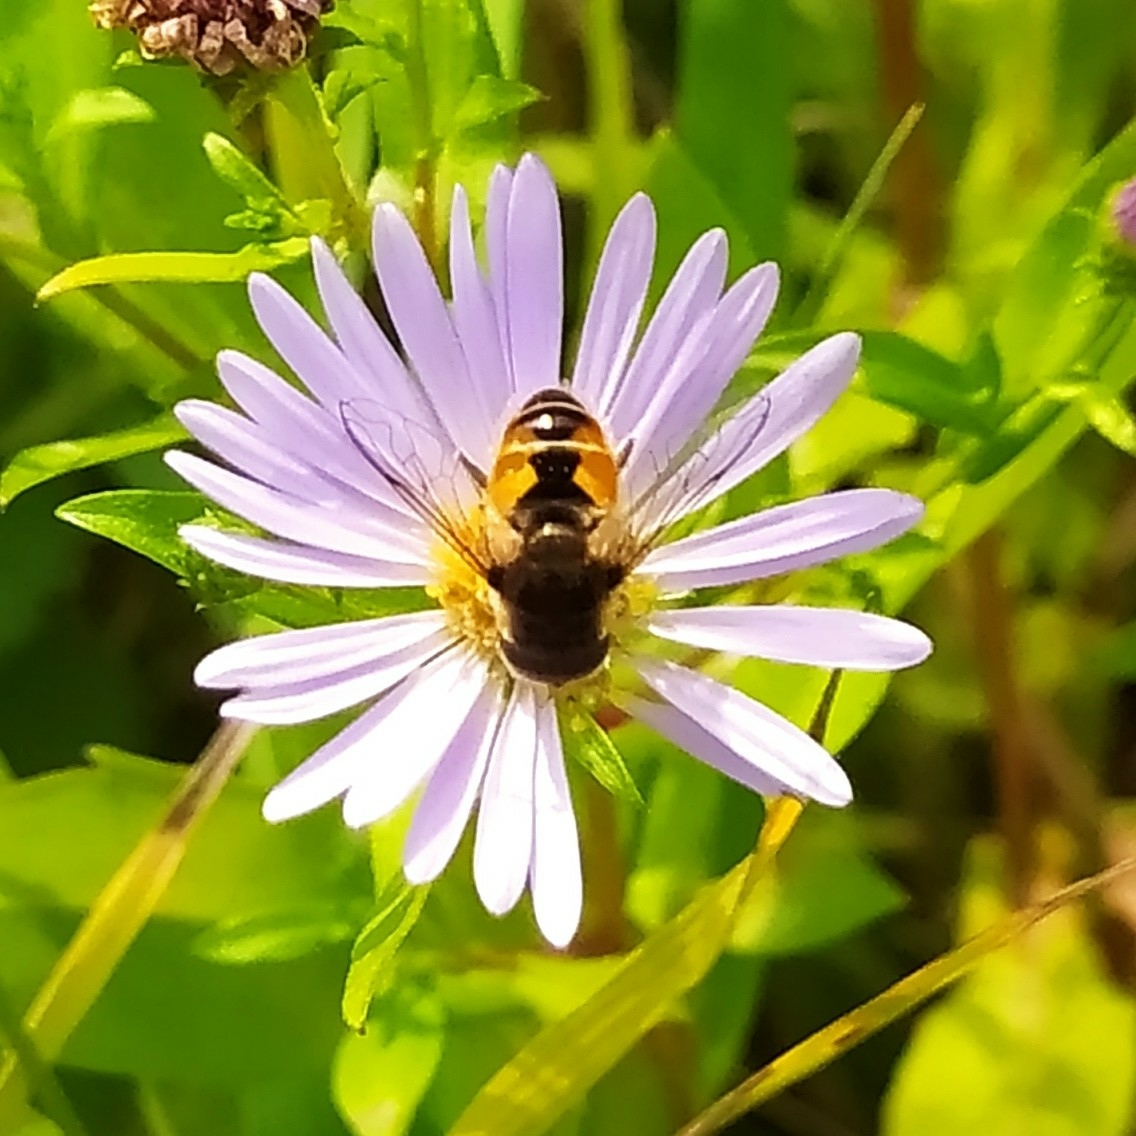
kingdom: Animalia
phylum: Arthropoda
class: Insecta
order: Diptera
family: Syrphidae
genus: Eristalis
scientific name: Eristalis arbustorum
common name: Hover fly
